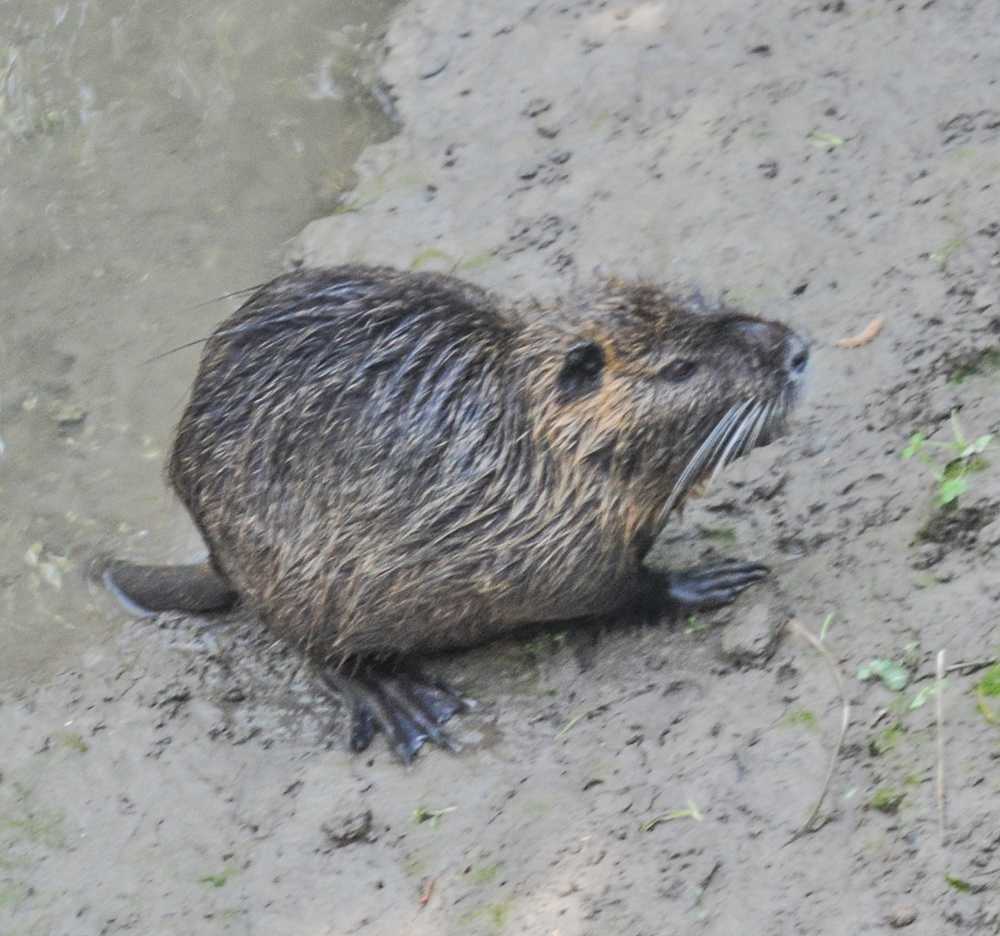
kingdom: Animalia
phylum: Chordata
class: Mammalia
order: Rodentia
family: Myocastoridae
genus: Myocastor
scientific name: Myocastor coypus
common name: Coypu
